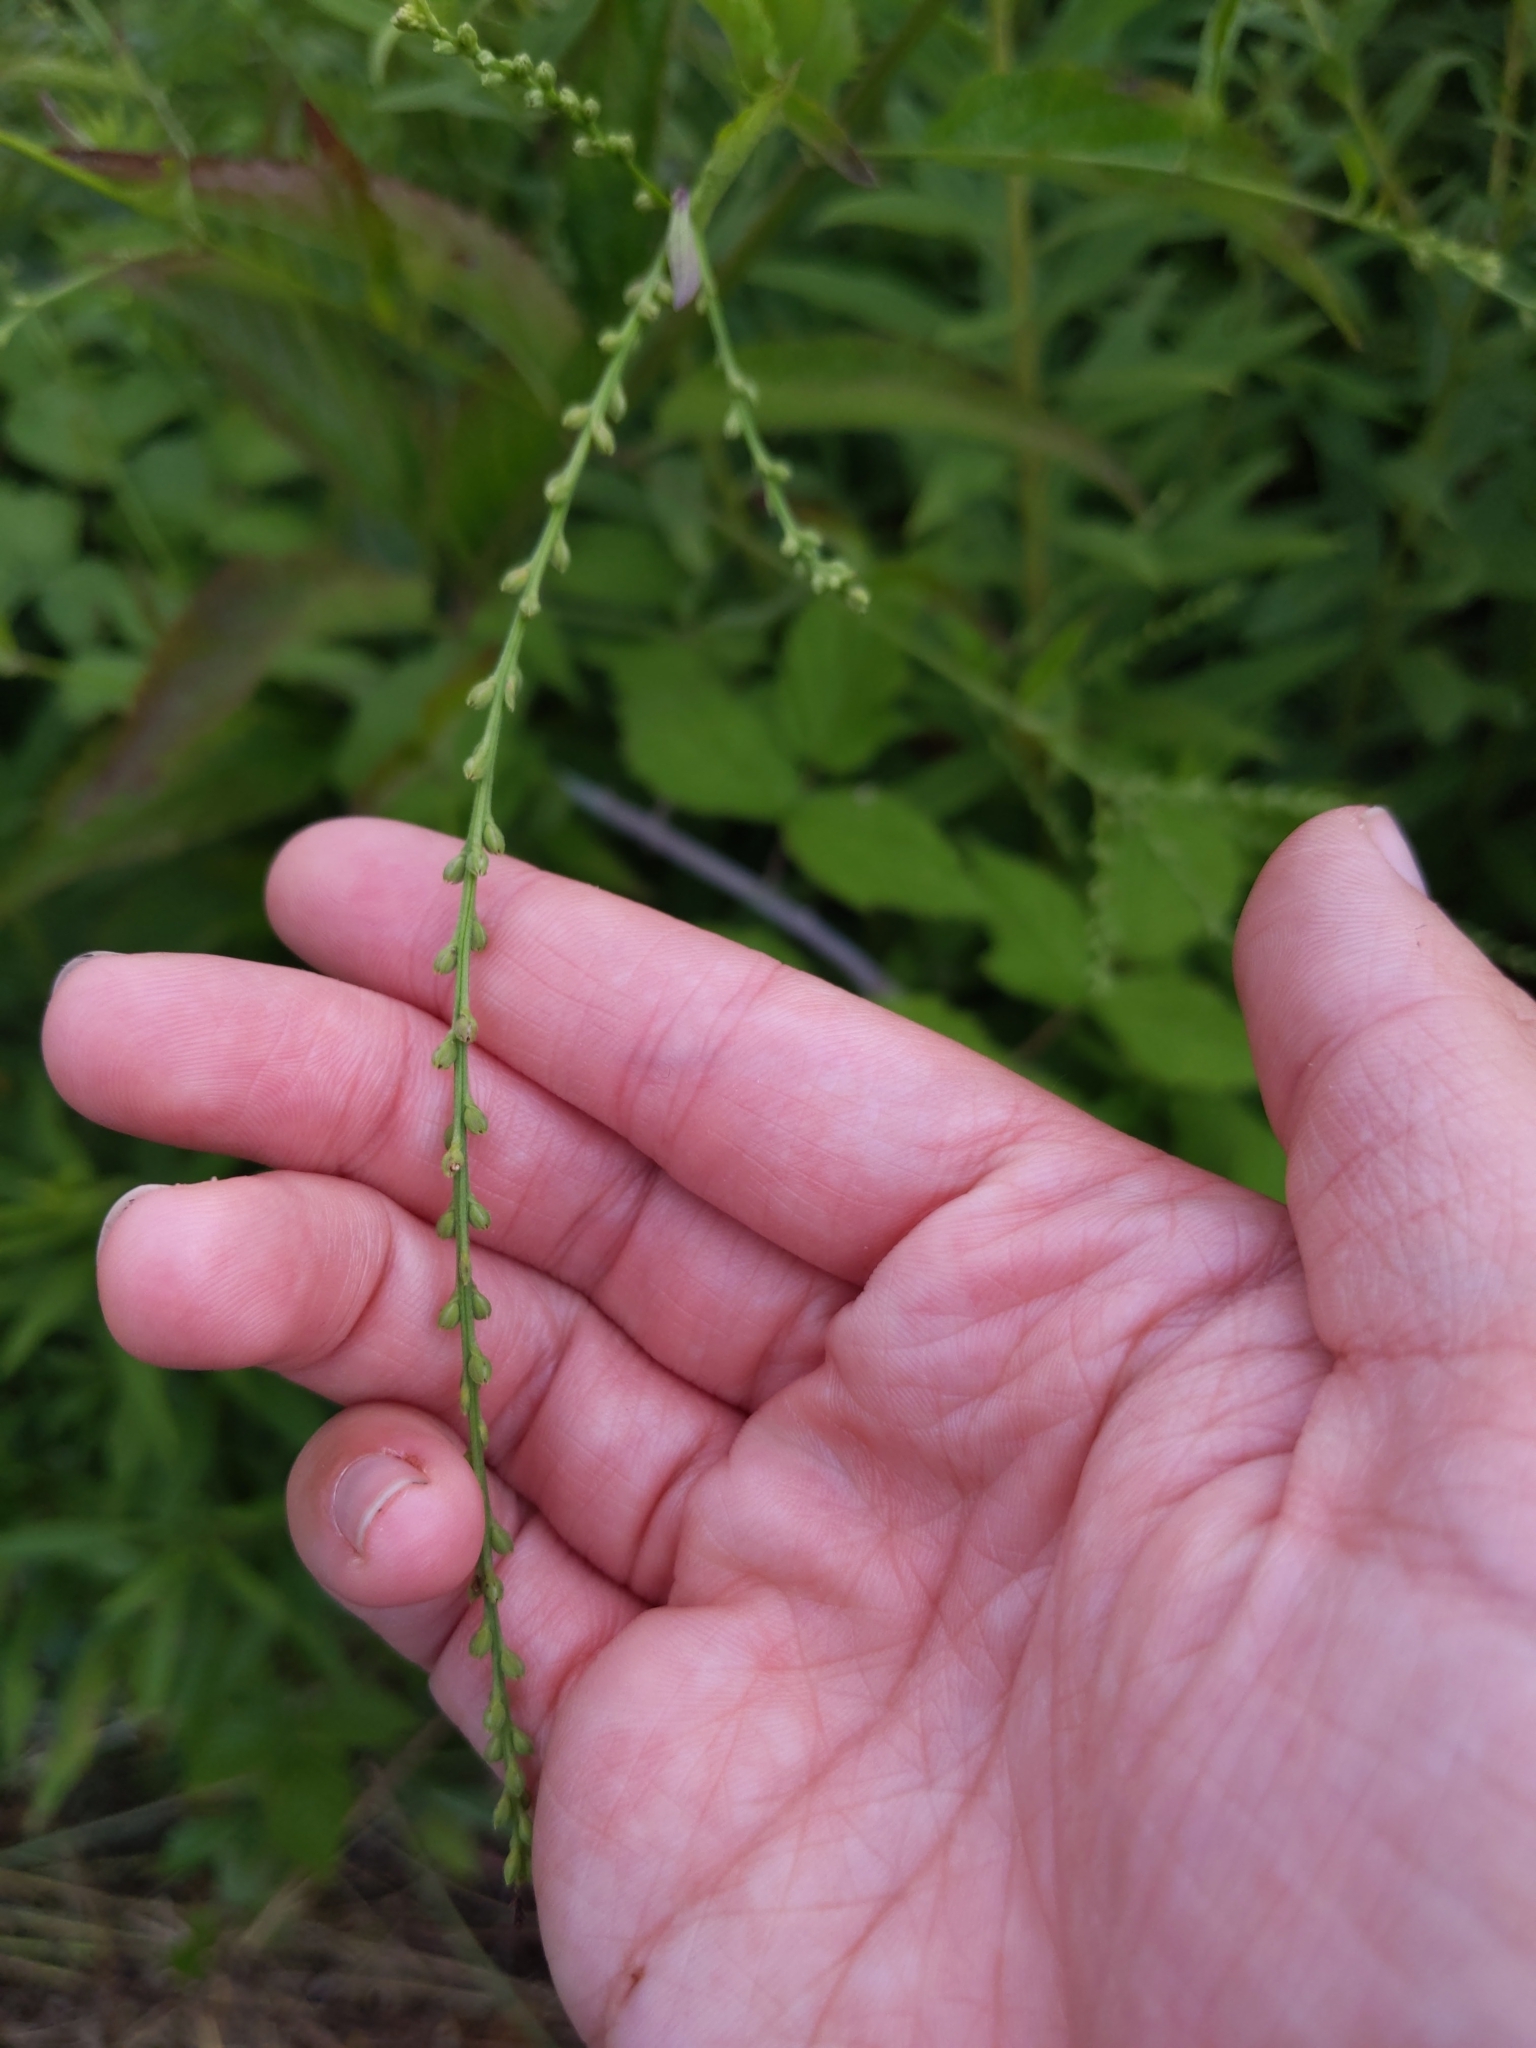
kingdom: Plantae
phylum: Tracheophyta
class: Magnoliopsida
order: Lamiales
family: Verbenaceae
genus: Verbena
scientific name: Verbena urticifolia
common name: Nettle-leaved vervain
